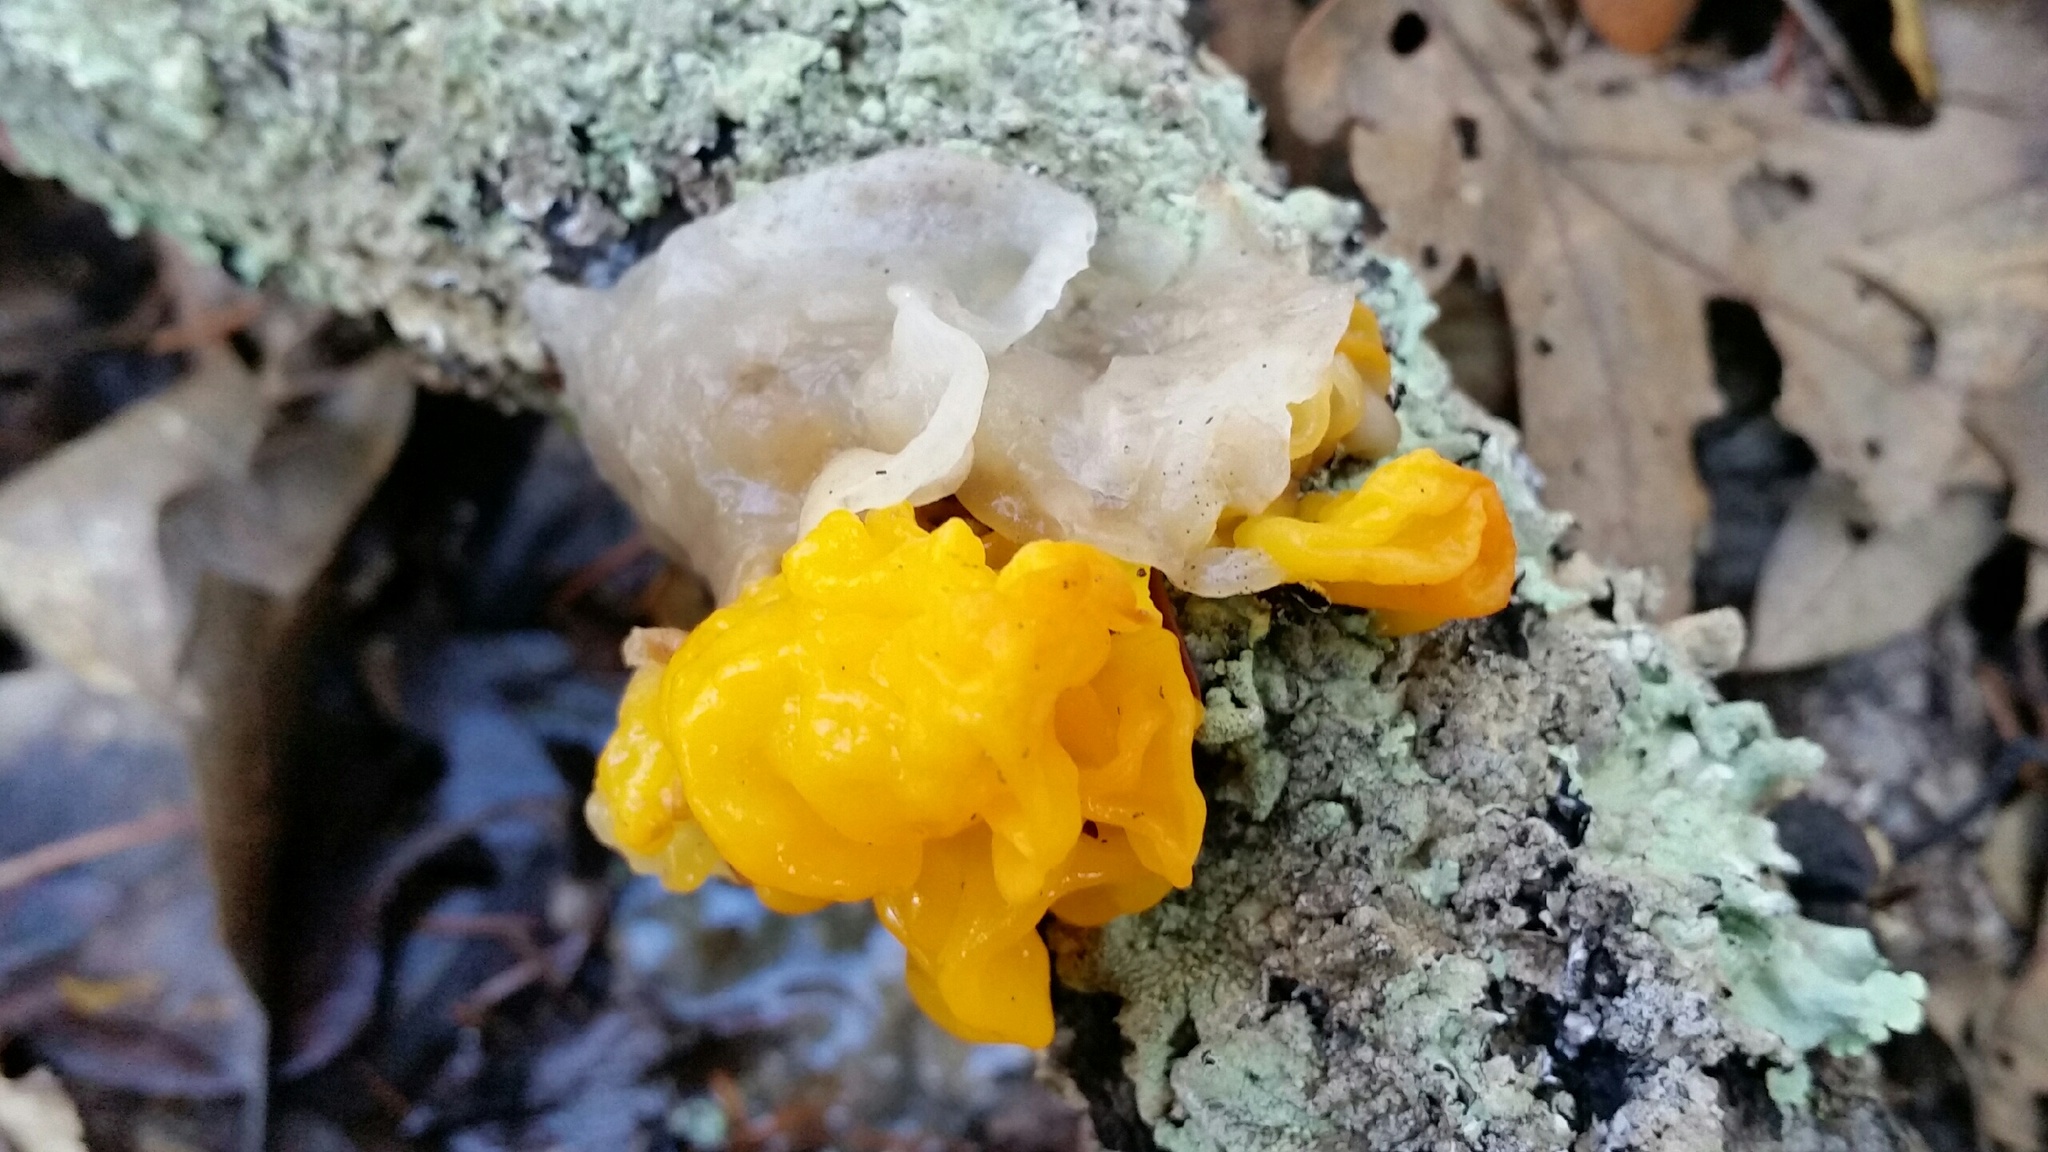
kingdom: Fungi
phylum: Basidiomycota
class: Tremellomycetes
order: Tremellales
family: Naemateliaceae
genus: Naematelia
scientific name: Naematelia aurantia
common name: Golden ear
